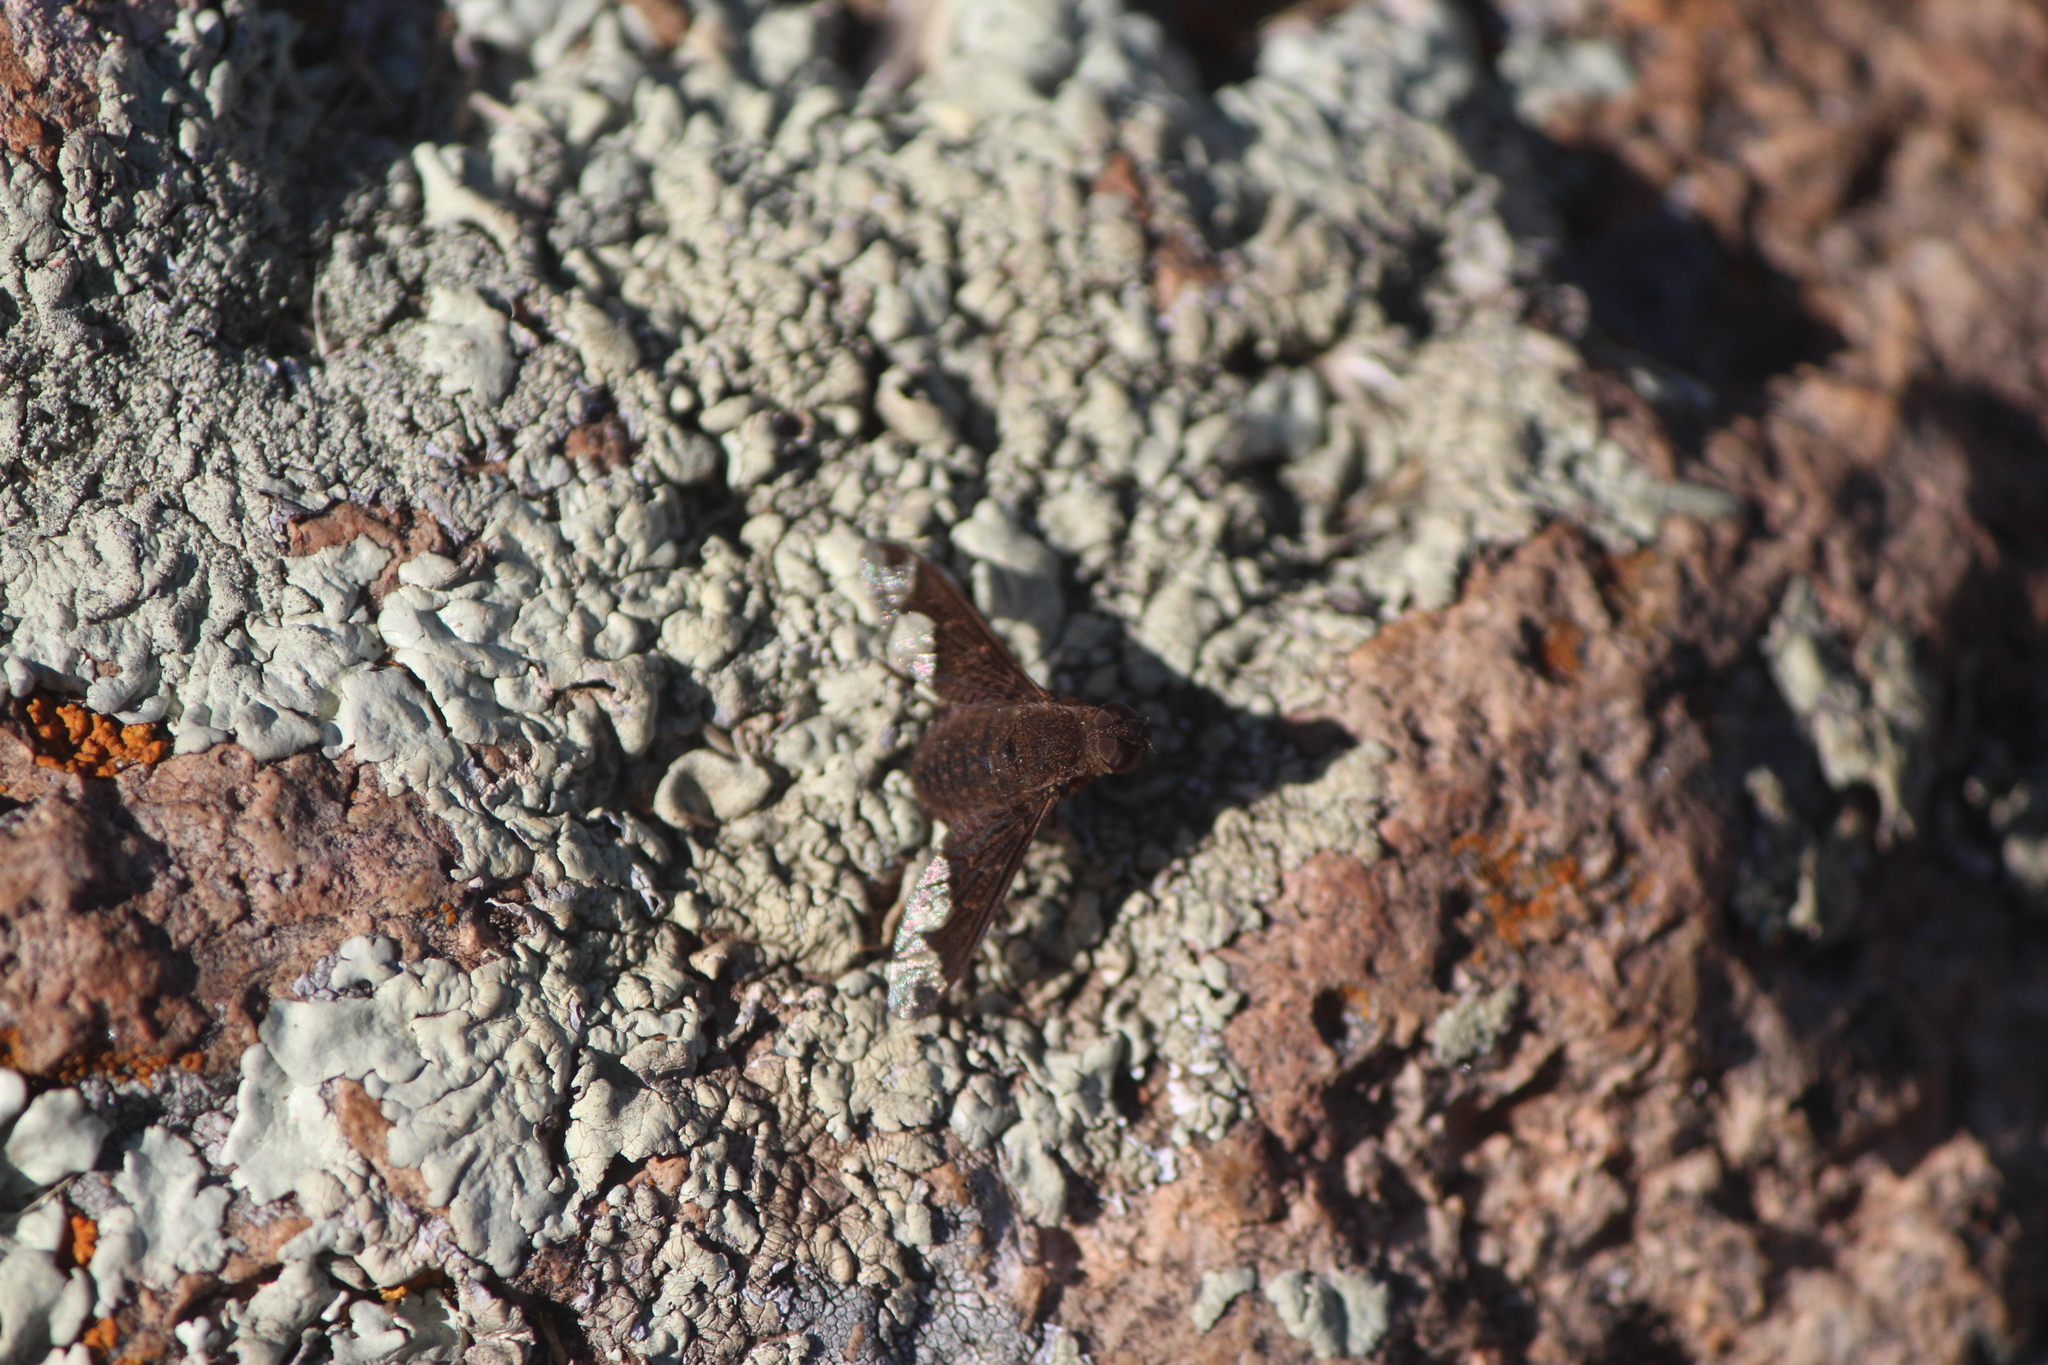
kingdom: Animalia
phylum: Arthropoda
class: Insecta
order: Diptera
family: Bombyliidae
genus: Hemipenthes
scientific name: Hemipenthes jaennickeana
